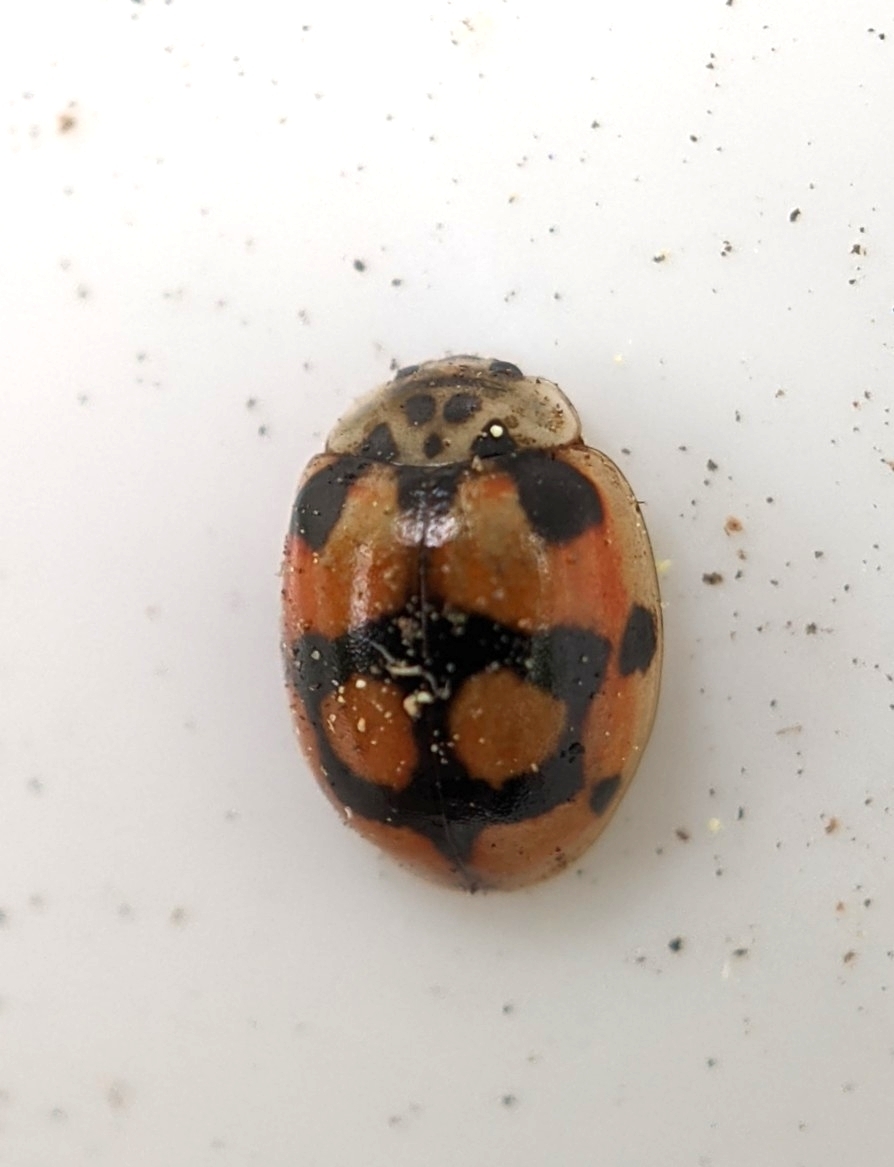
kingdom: Animalia
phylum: Arthropoda
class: Insecta
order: Coleoptera
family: Coccinellidae
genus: Adalia
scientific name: Adalia decempunctata
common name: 10-spot ladybird
